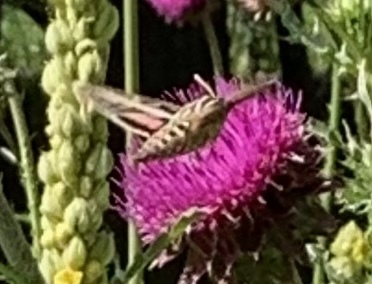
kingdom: Animalia
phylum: Arthropoda
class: Insecta
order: Lepidoptera
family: Sphingidae
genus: Hyles
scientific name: Hyles lineata
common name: White-lined sphinx
